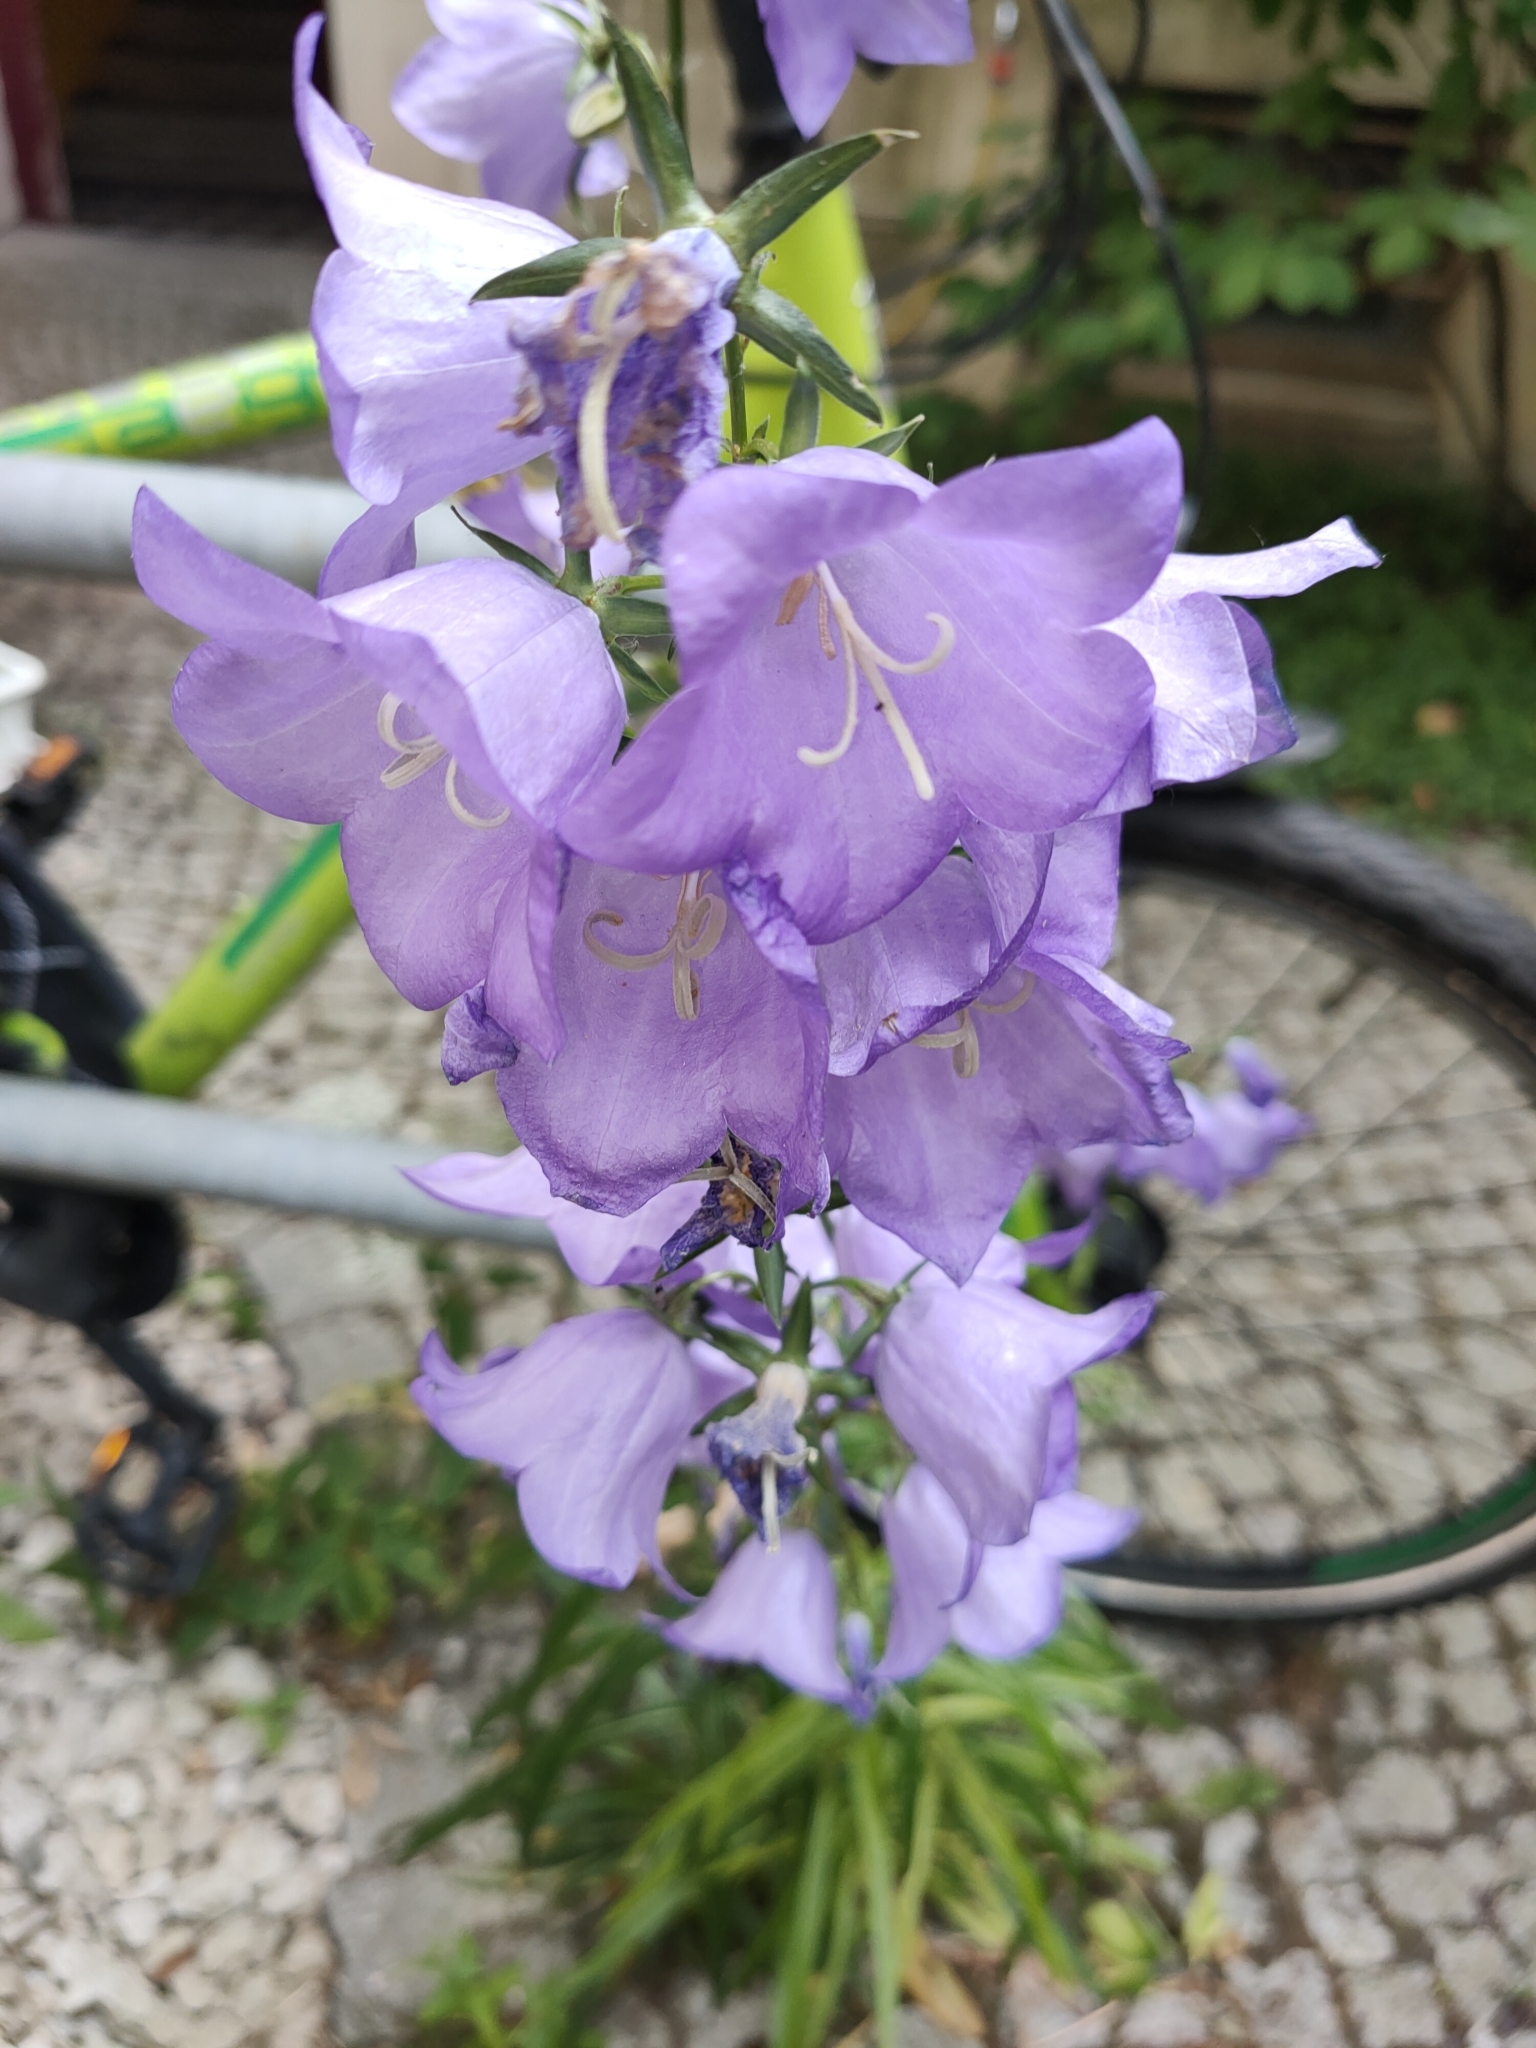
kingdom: Plantae
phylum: Tracheophyta
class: Magnoliopsida
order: Asterales
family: Campanulaceae
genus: Campanula
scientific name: Campanula persicifolia
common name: Peach-leaved bellflower
